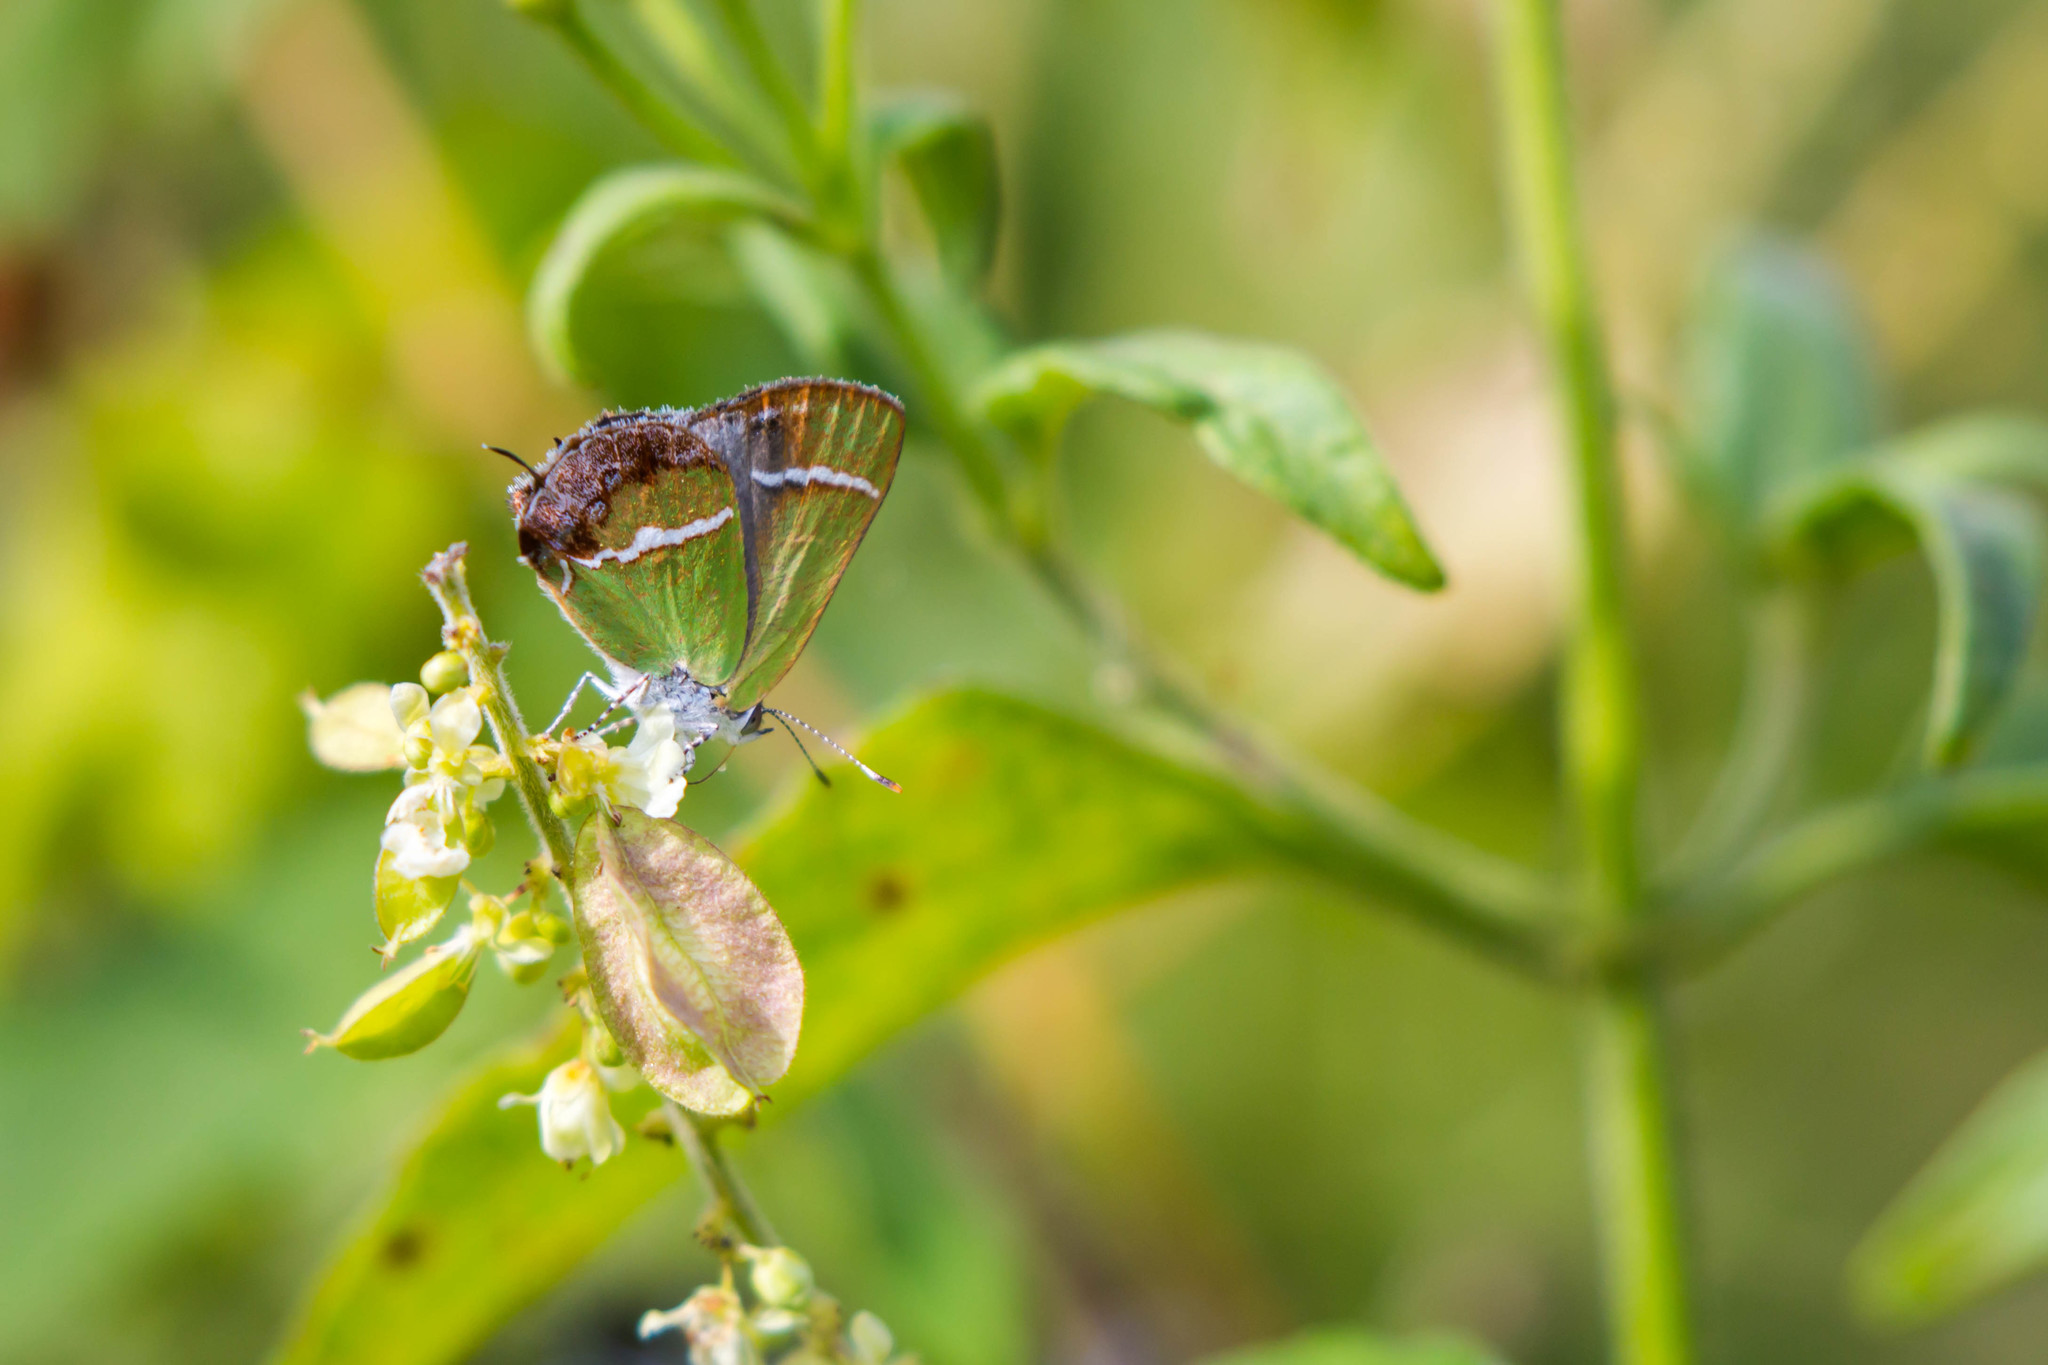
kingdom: Animalia
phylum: Arthropoda
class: Insecta
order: Lepidoptera
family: Lycaenidae
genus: Chlorostrymon
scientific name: Chlorostrymon simaethis
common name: Silver-banded hairstreak
